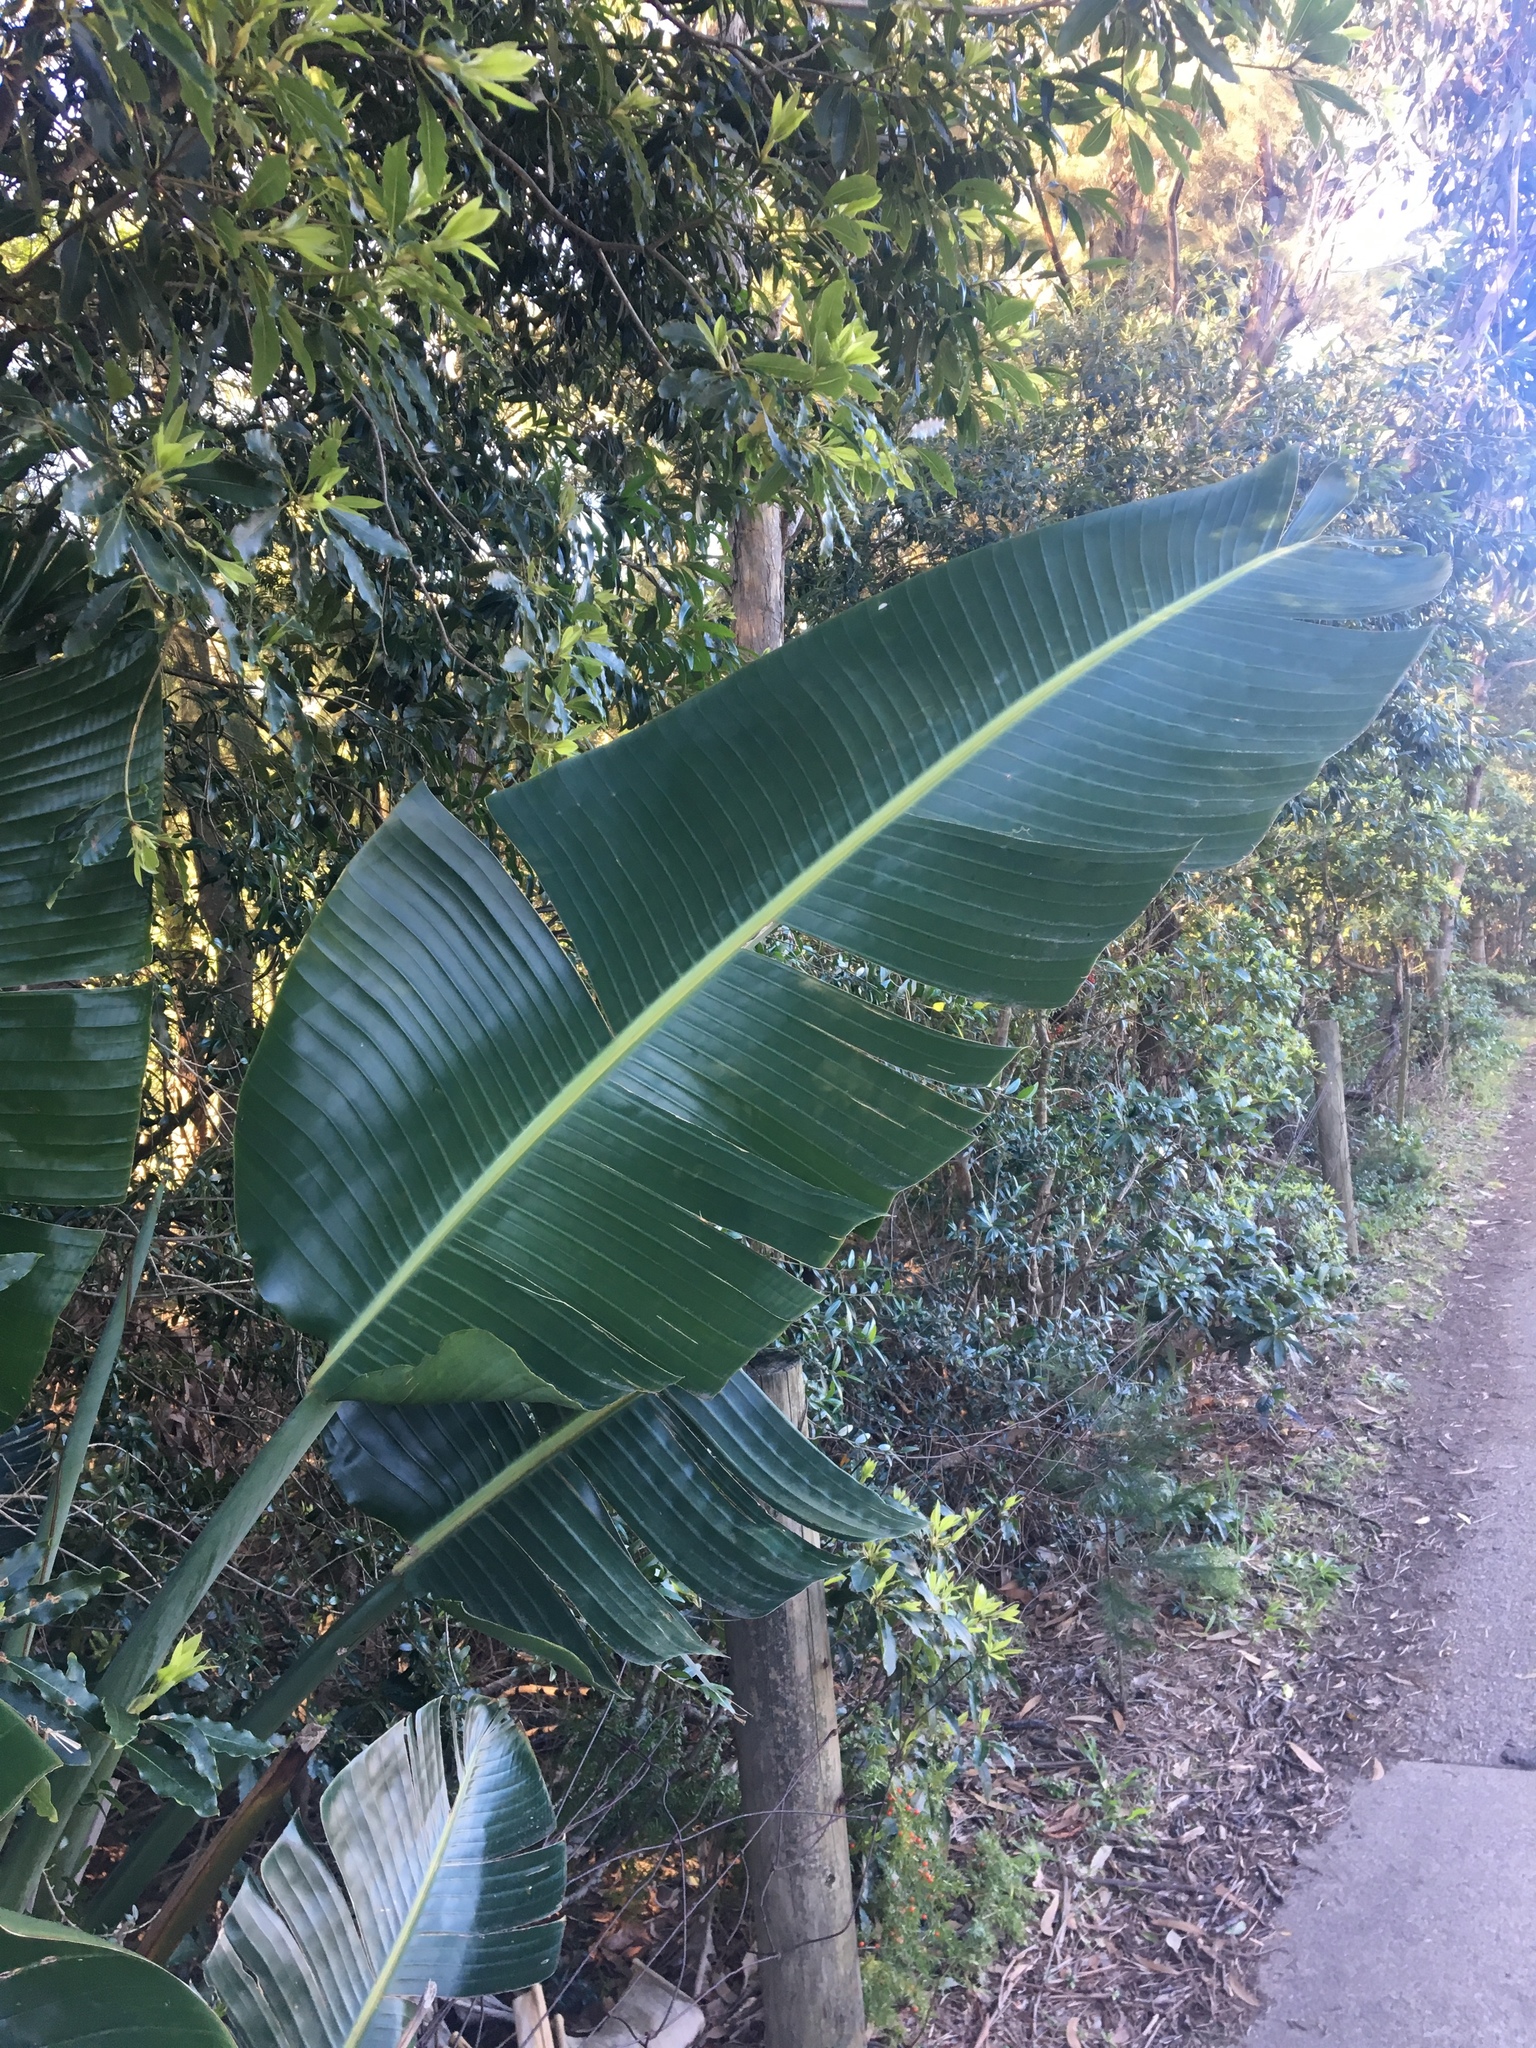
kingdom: Plantae
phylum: Tracheophyta
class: Liliopsida
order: Zingiberales
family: Strelitziaceae
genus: Strelitzia
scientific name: Strelitzia nicolai
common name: Bird-of-paradise tree
